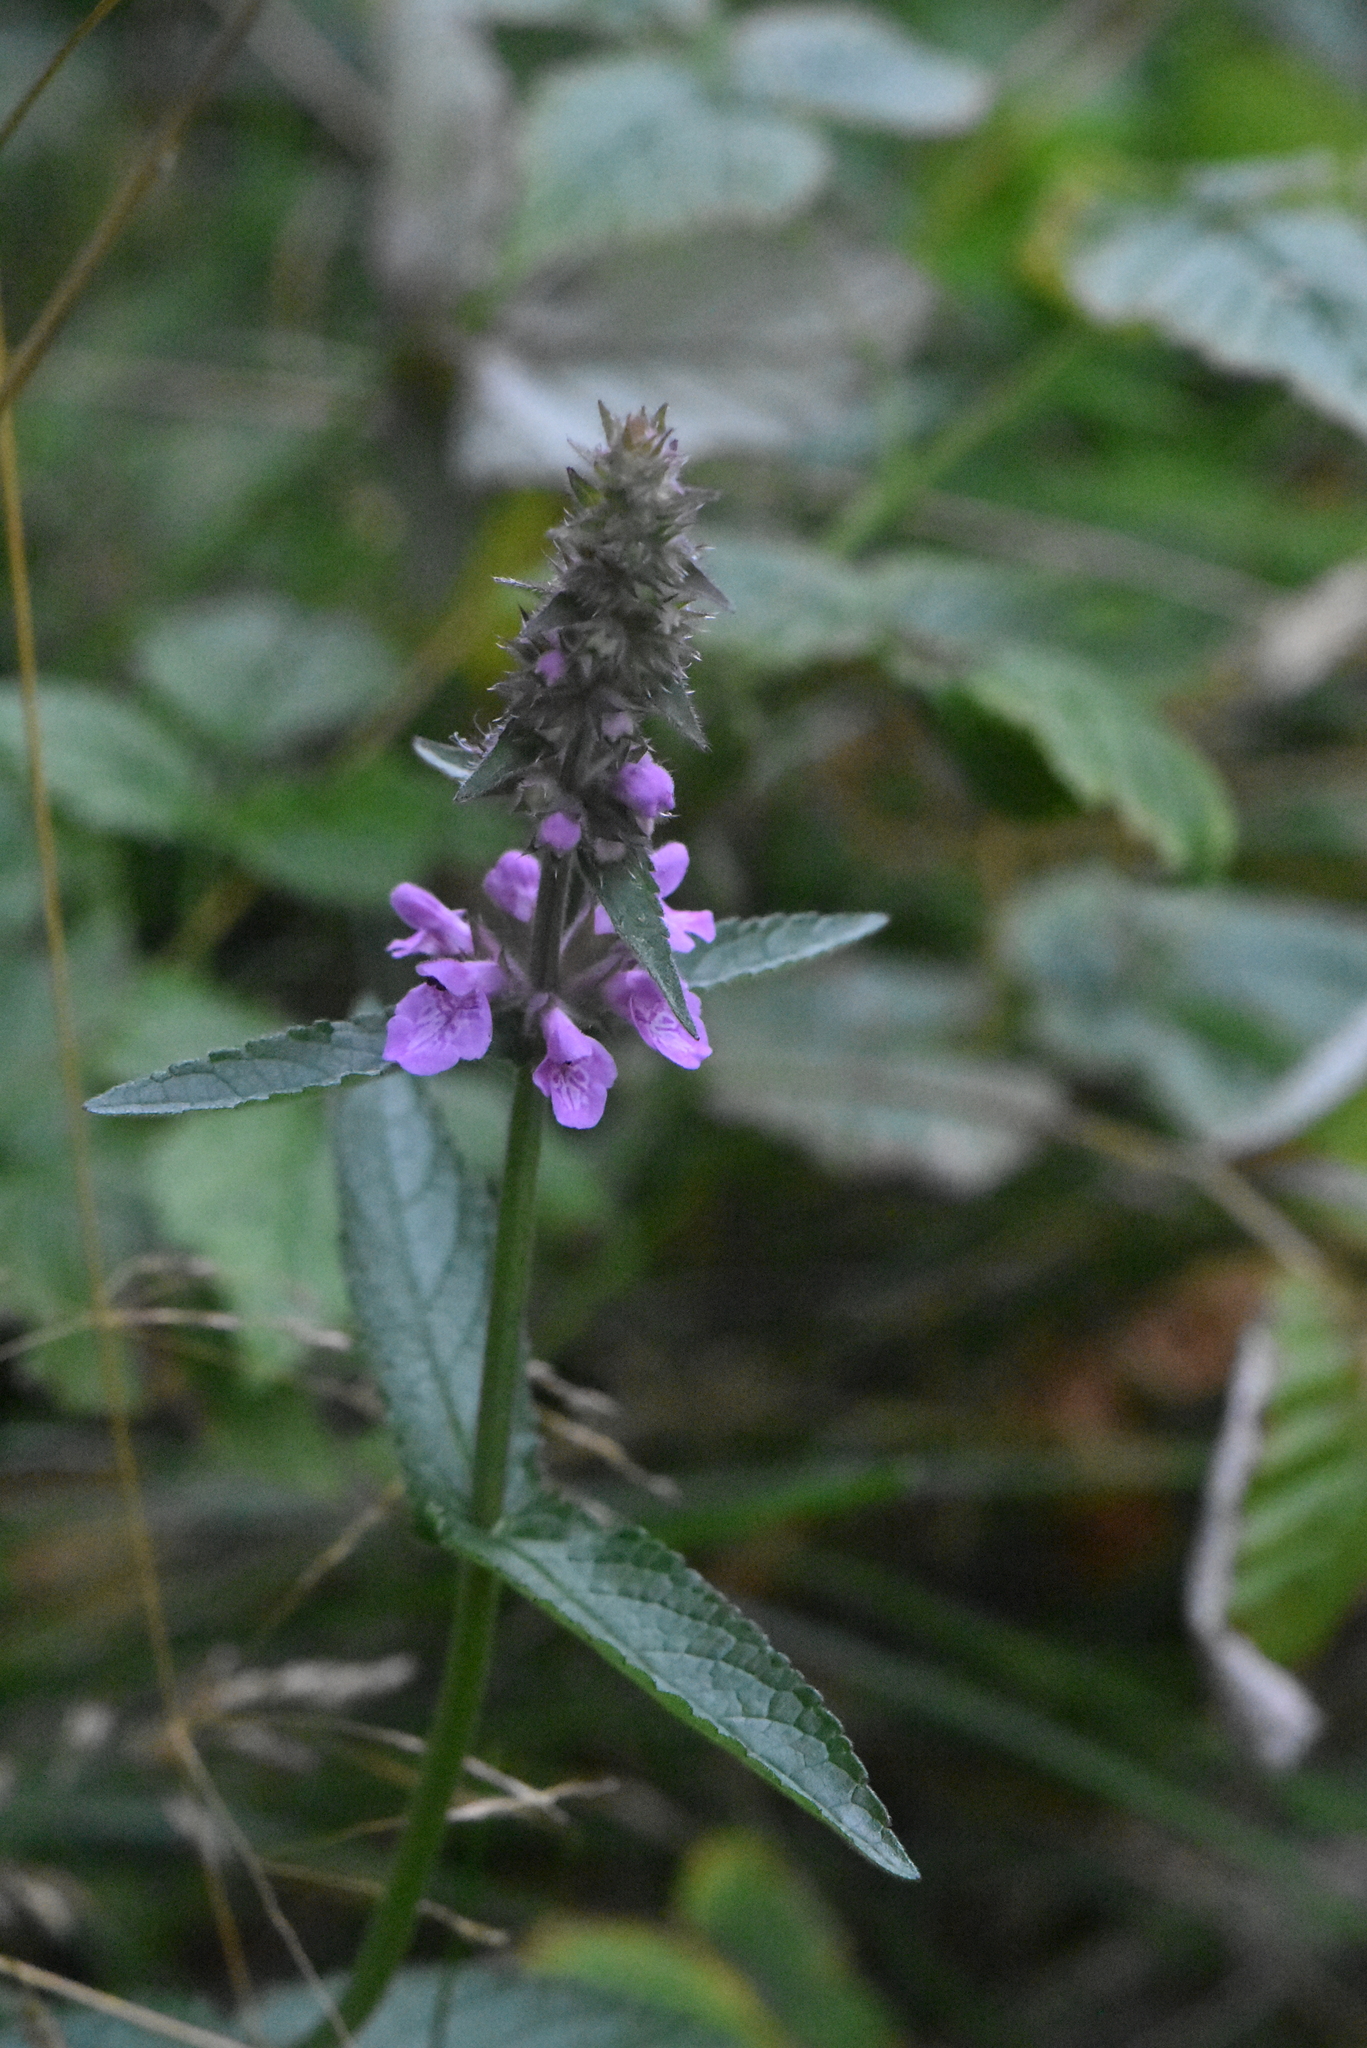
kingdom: Plantae
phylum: Tracheophyta
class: Magnoliopsida
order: Lamiales
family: Lamiaceae
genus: Stachys
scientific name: Stachys palustris
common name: Marsh woundwort
